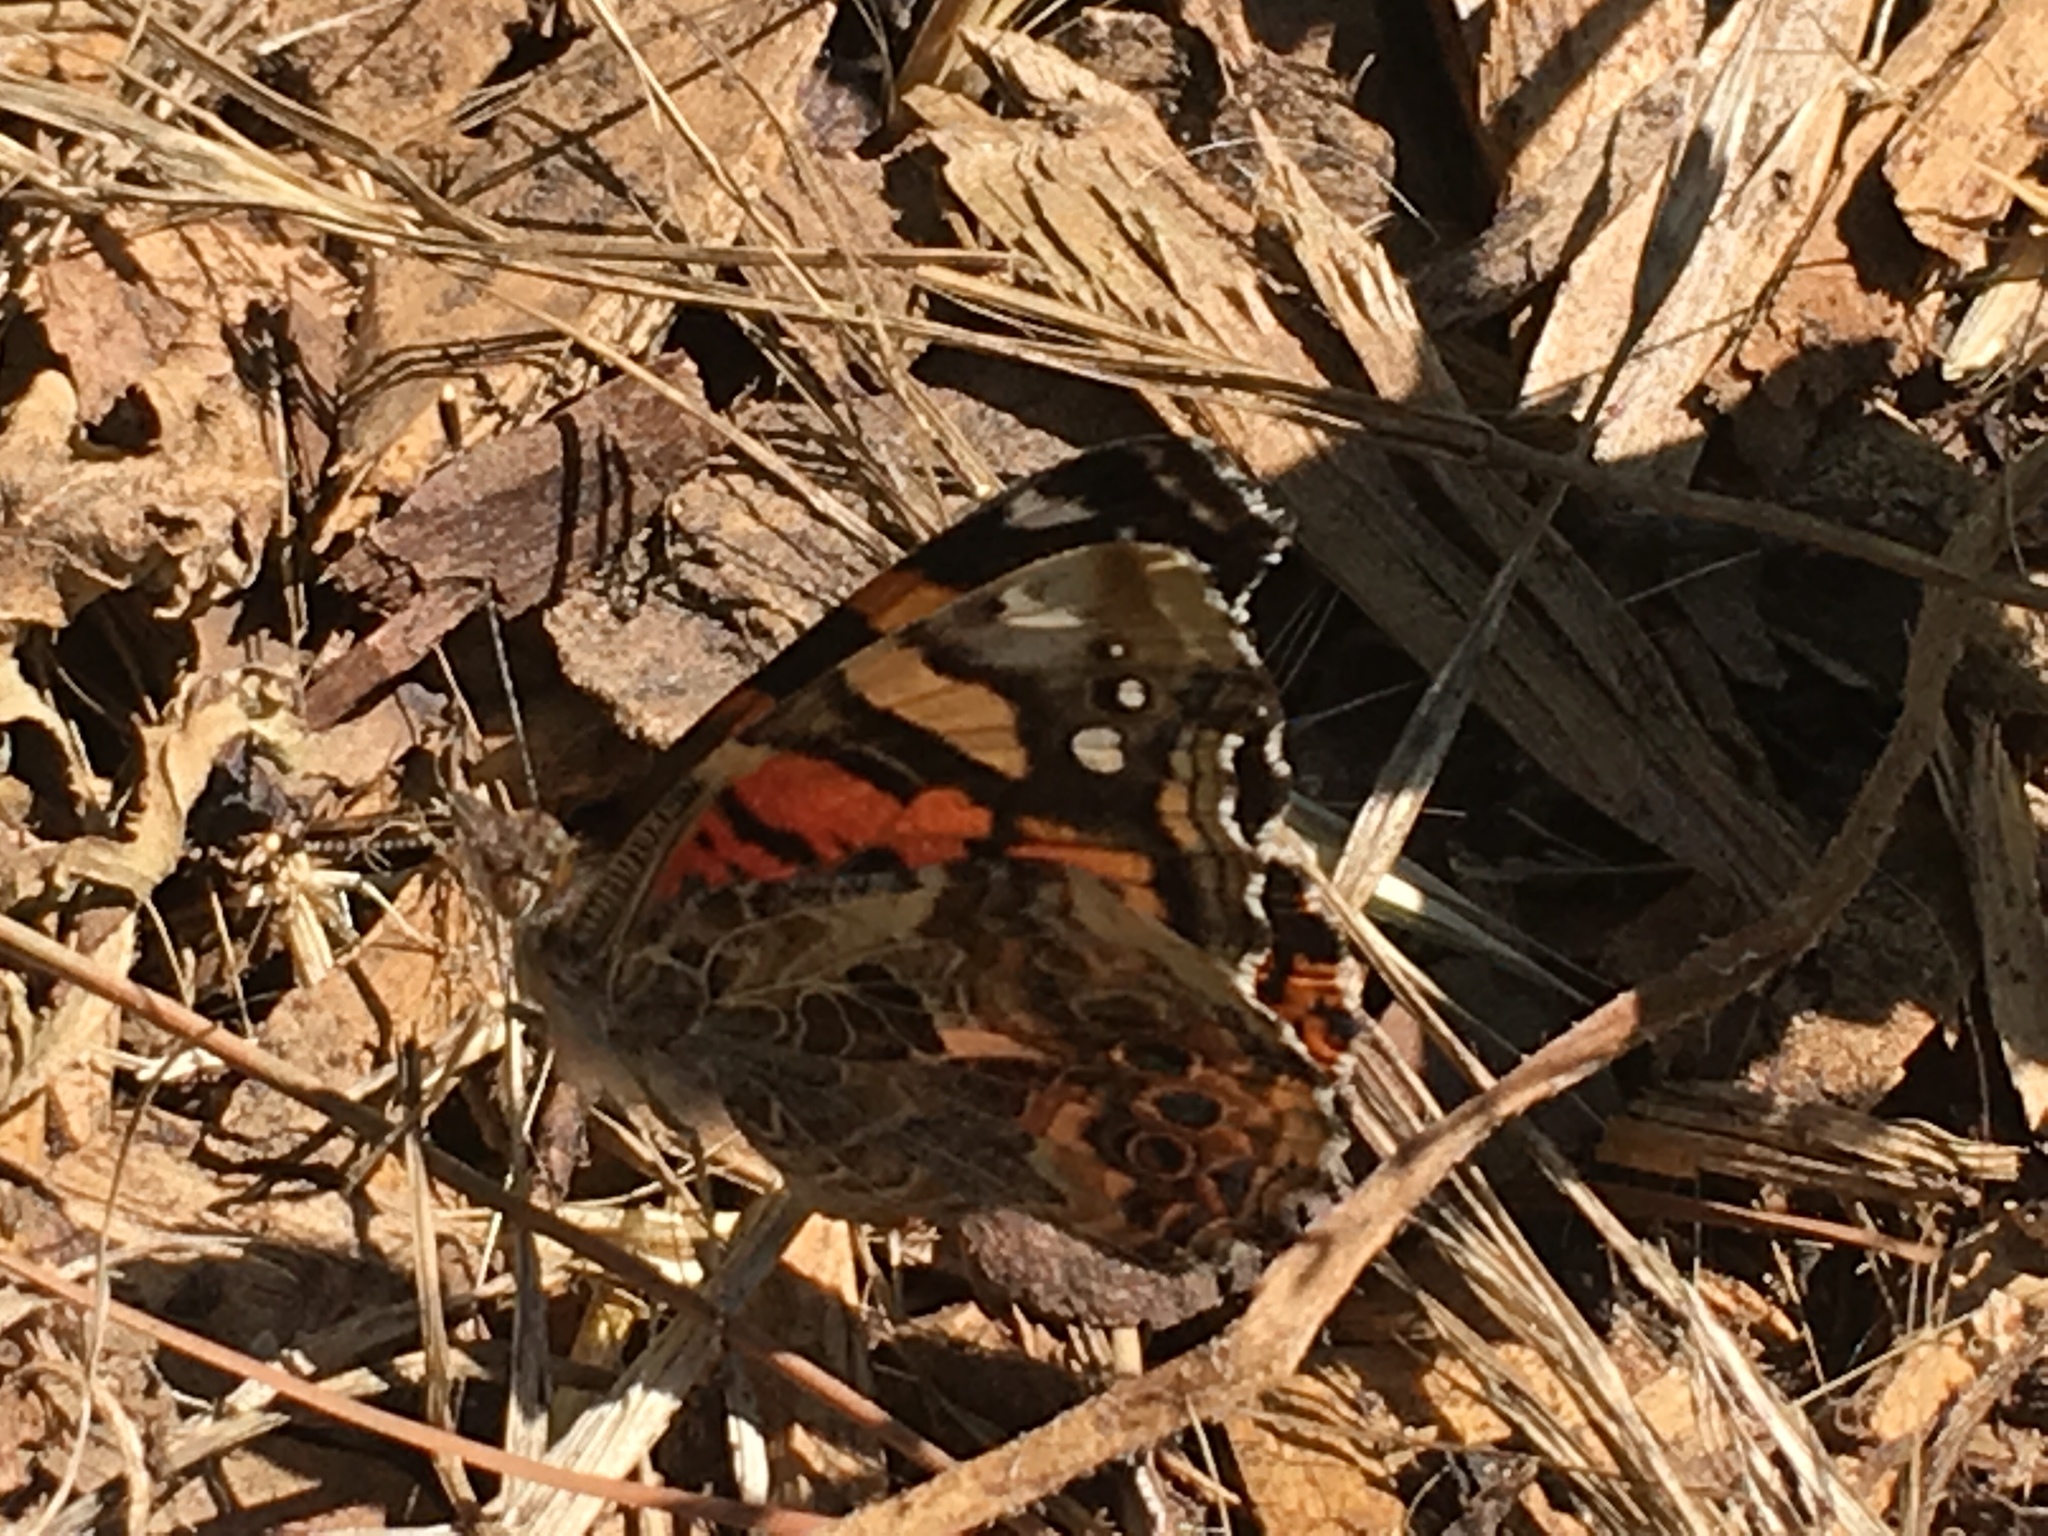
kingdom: Animalia
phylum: Arthropoda
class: Insecta
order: Lepidoptera
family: Nymphalidae
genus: Vanessa
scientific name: Vanessa annabella
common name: West coast lady
